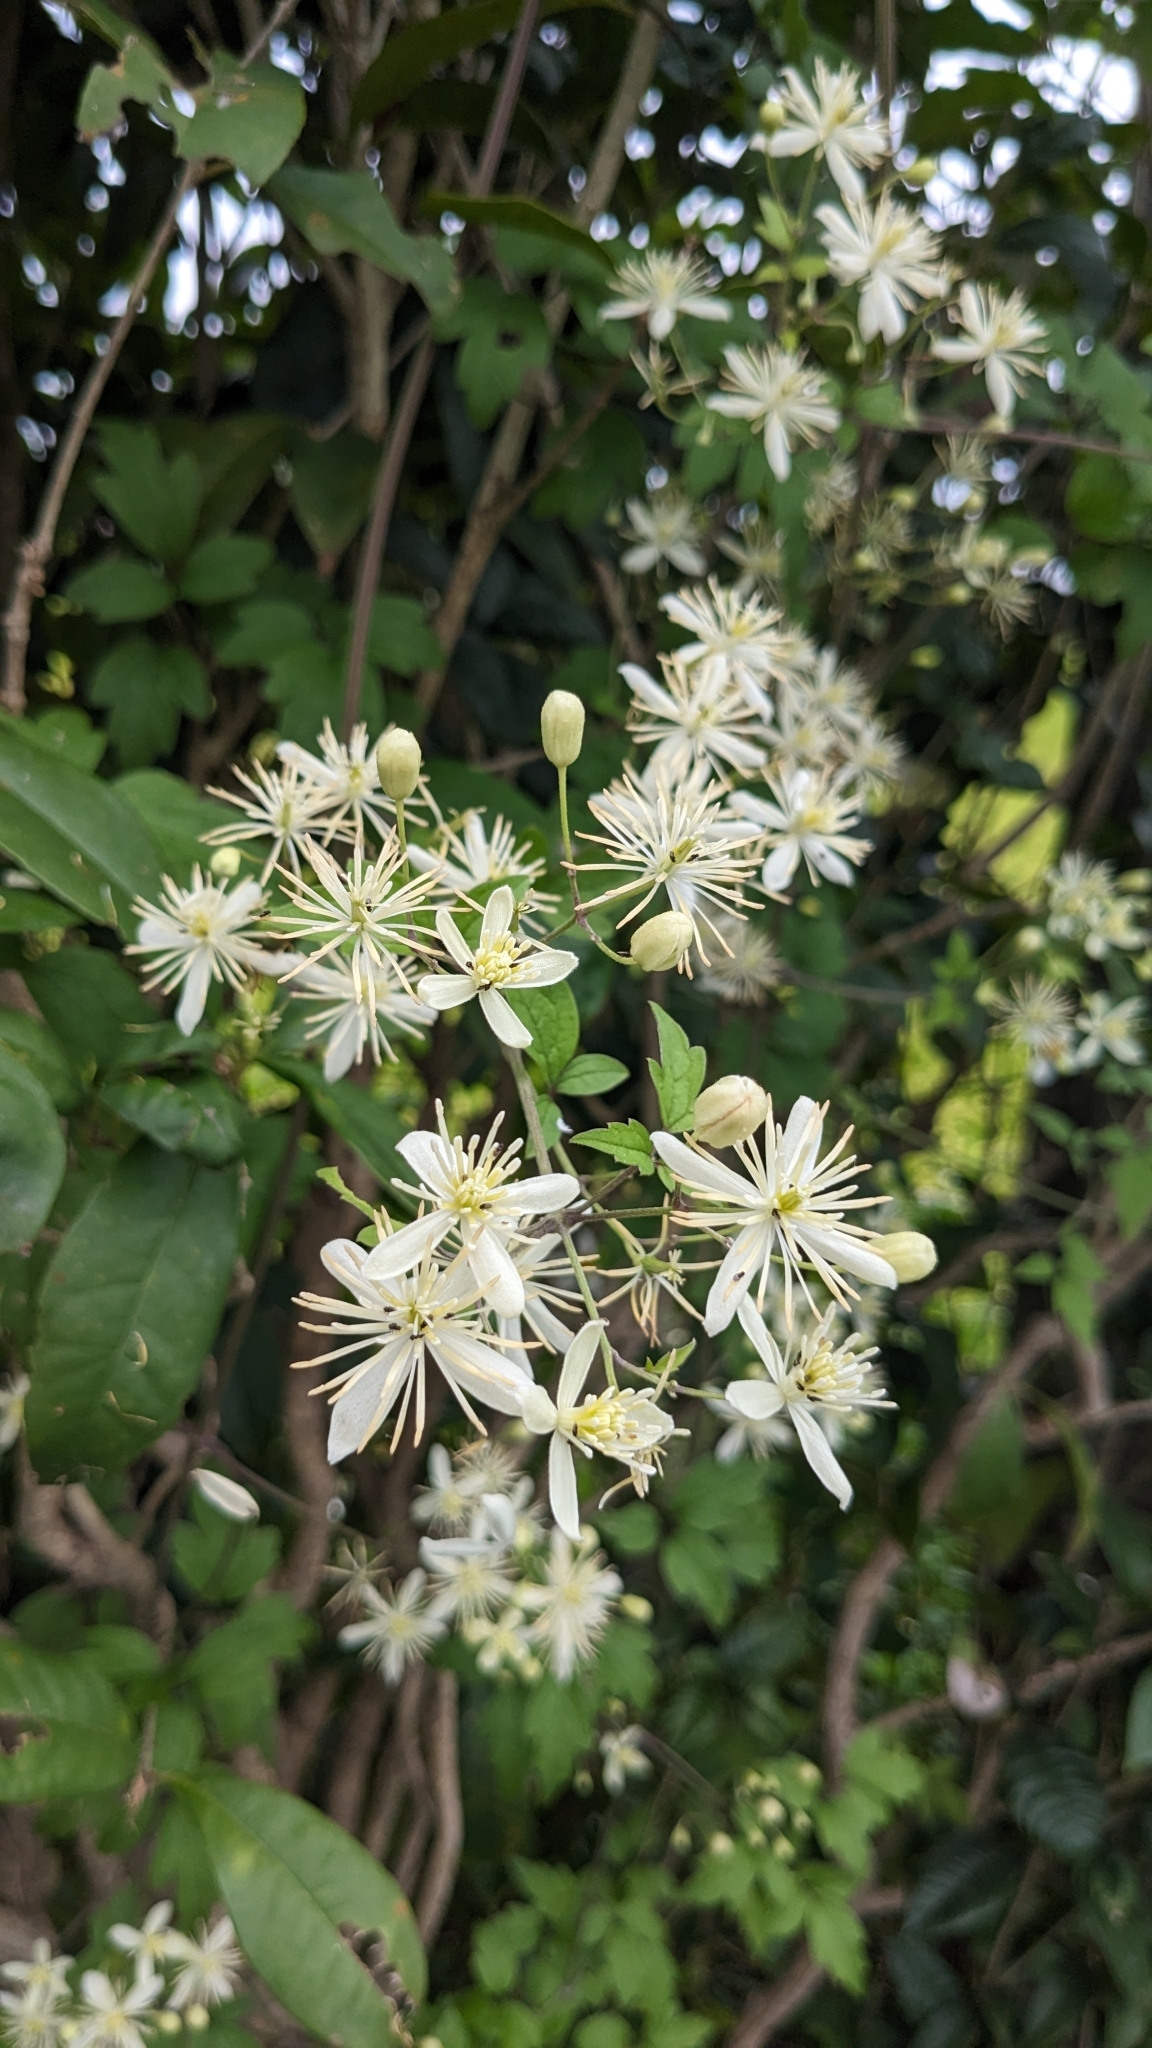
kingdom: Plantae
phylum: Tracheophyta
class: Magnoliopsida
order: Ranunculales
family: Ranunculaceae
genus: Clematis
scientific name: Clematis grata
